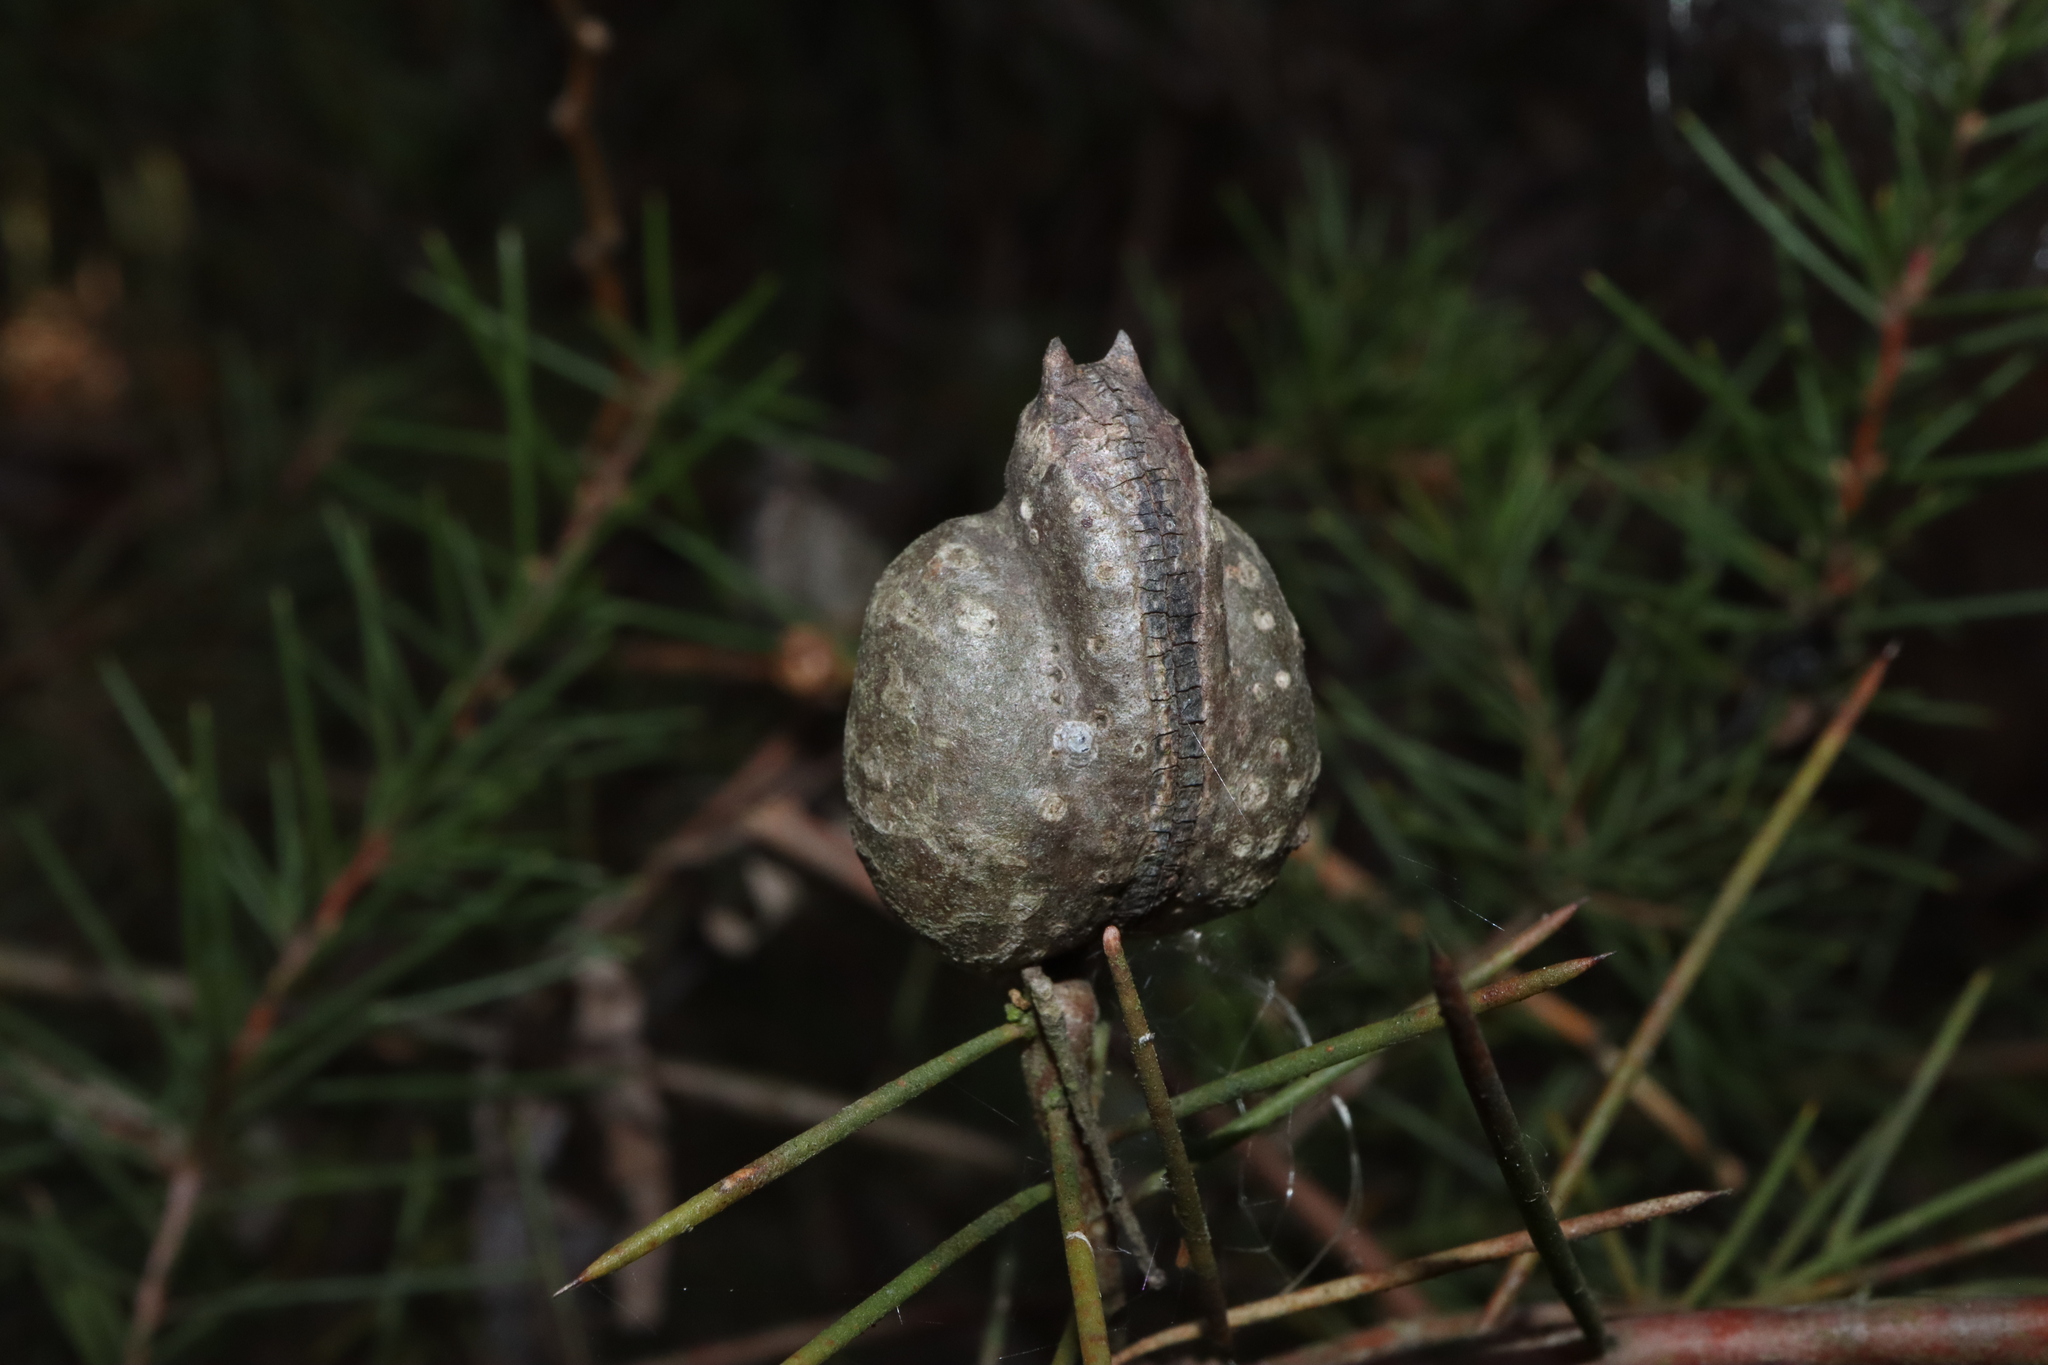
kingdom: Plantae
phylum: Tracheophyta
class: Magnoliopsida
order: Proteales
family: Proteaceae
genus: Hakea
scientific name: Hakea sericea
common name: Needle bush
